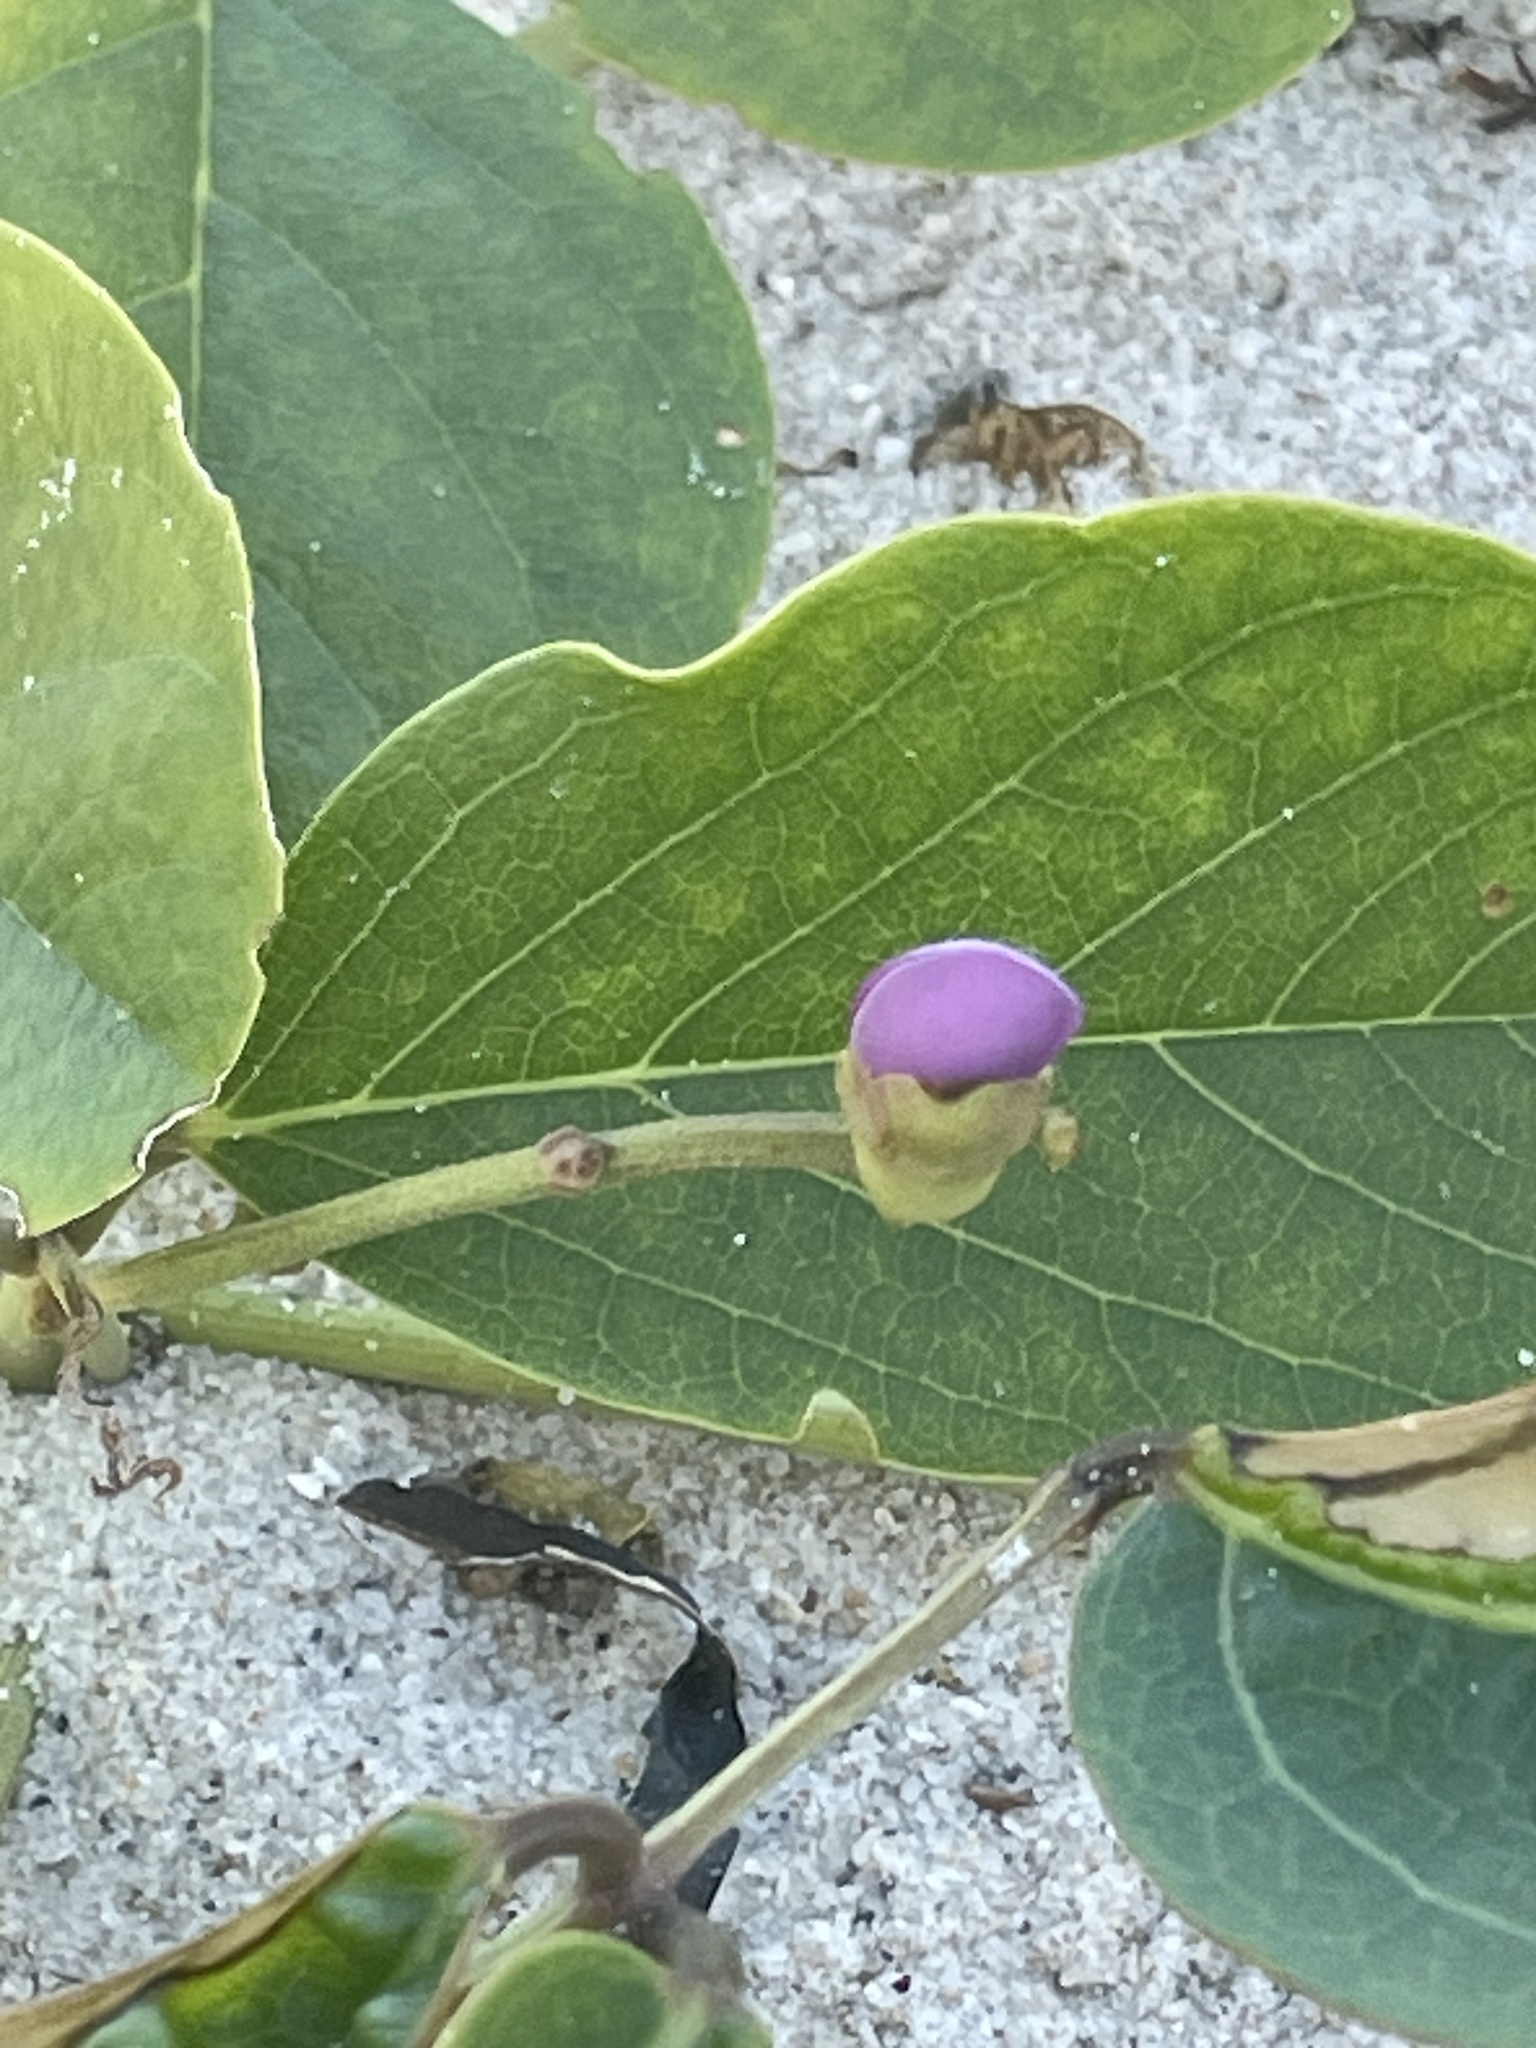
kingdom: Plantae
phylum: Tracheophyta
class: Magnoliopsida
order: Fabales
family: Fabaceae
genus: Canavalia
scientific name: Canavalia rosea
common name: Beach-bean
